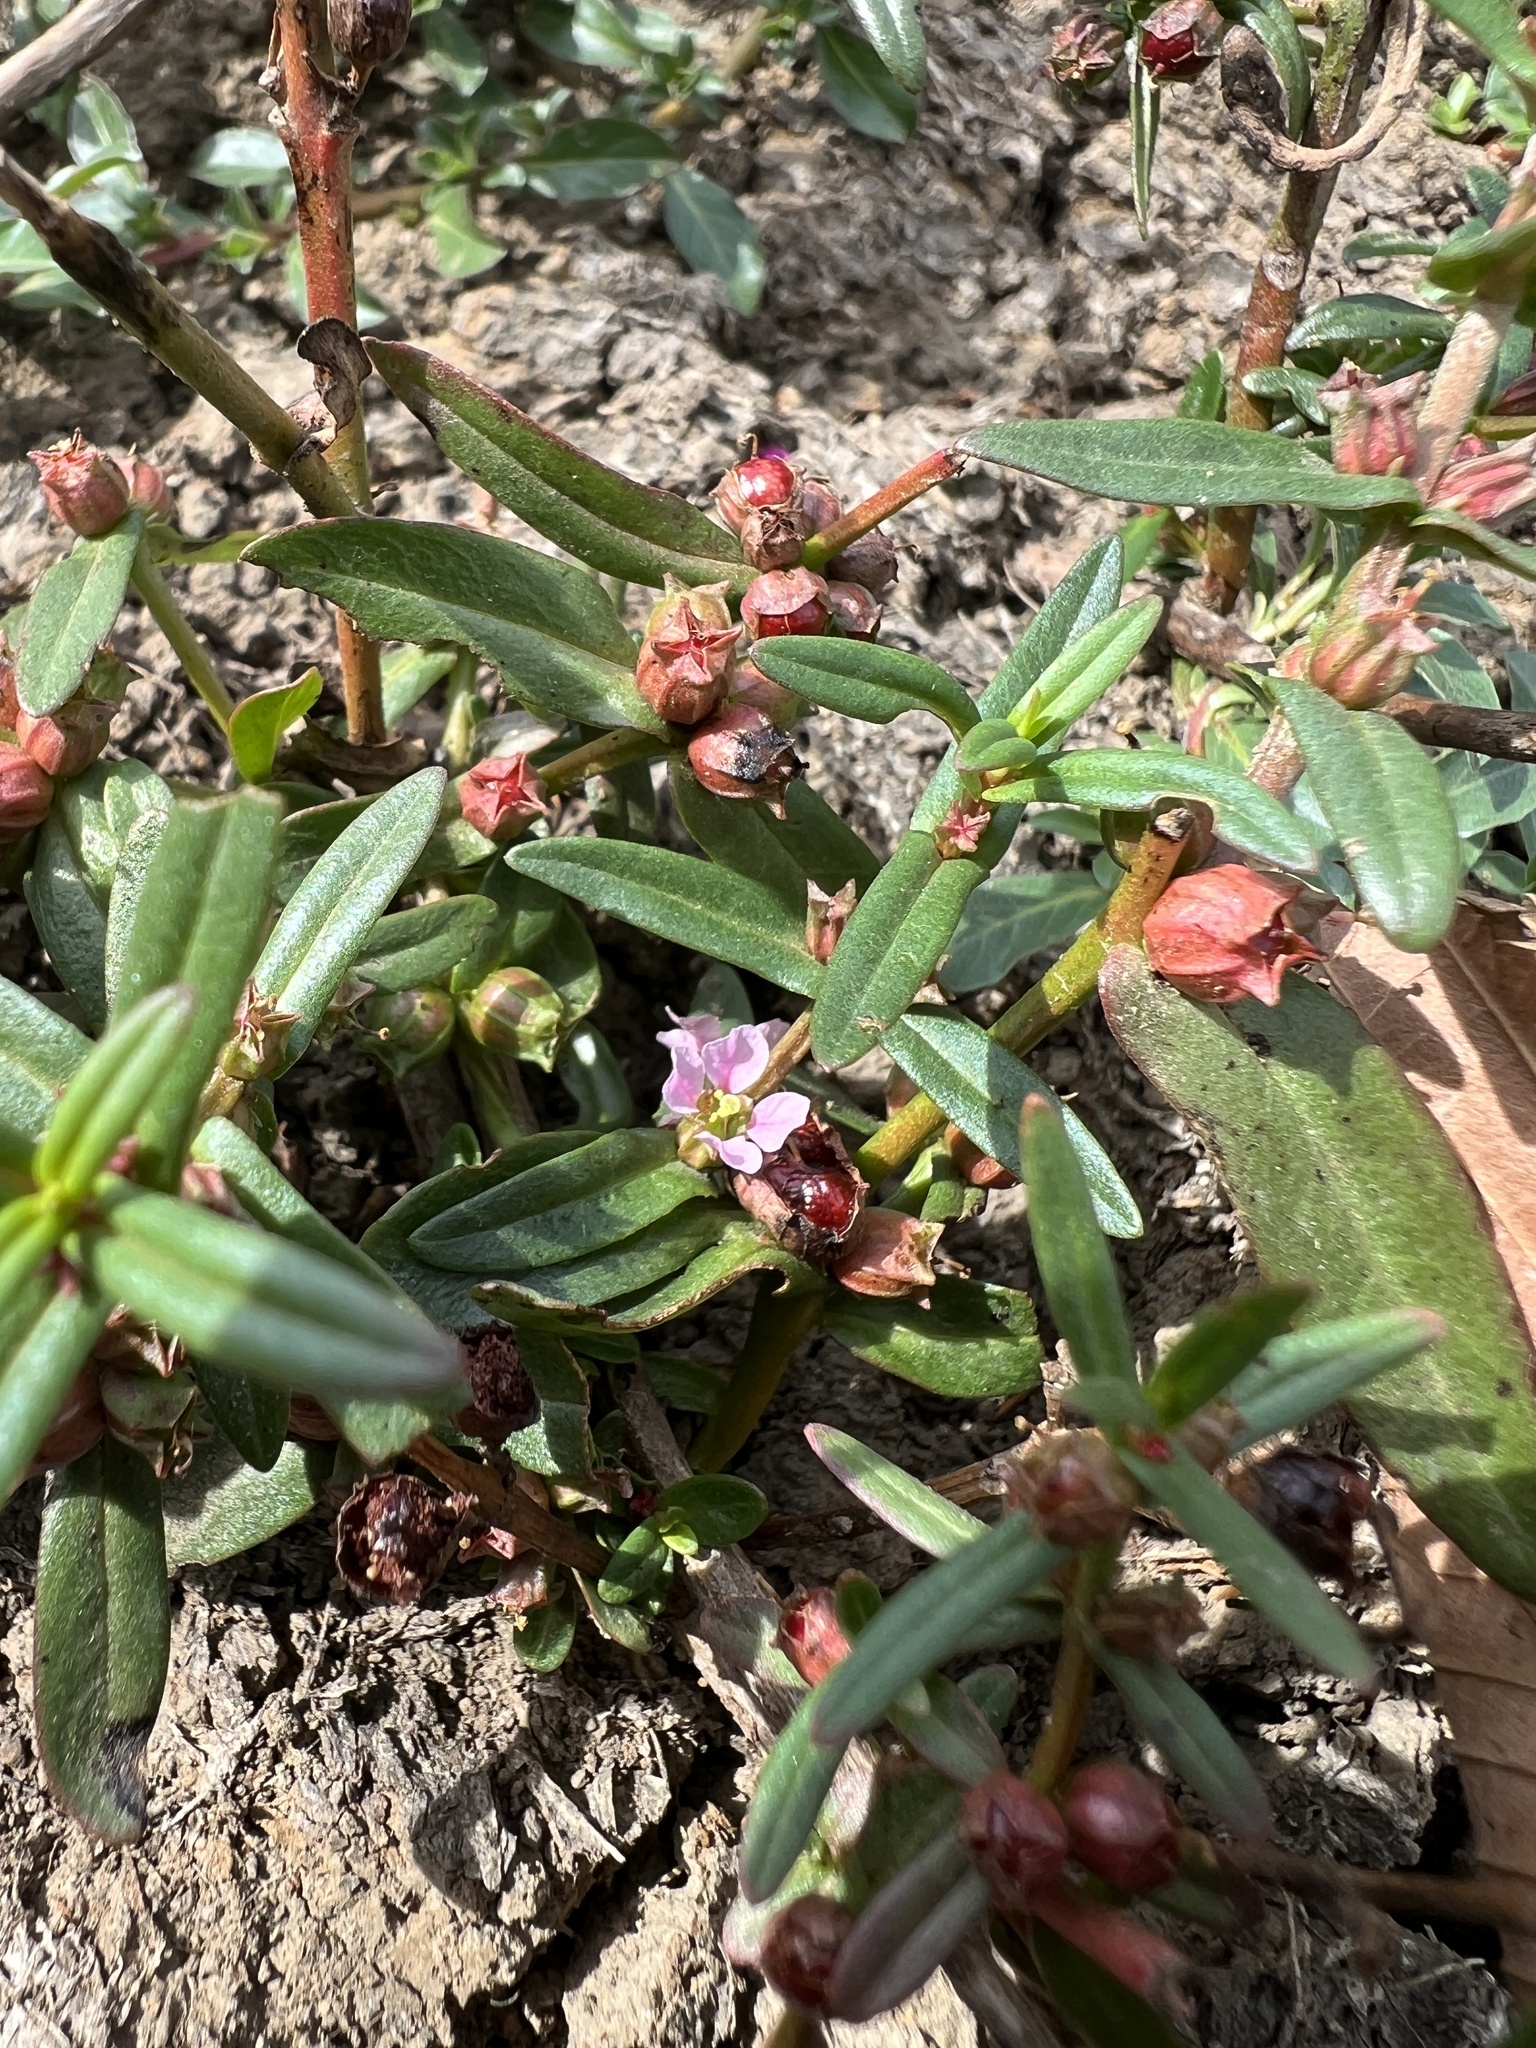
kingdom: Plantae
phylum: Tracheophyta
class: Magnoliopsida
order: Myrtales
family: Lythraceae
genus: Ammannia
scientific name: Ammannia robusta
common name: Grand ammannia
